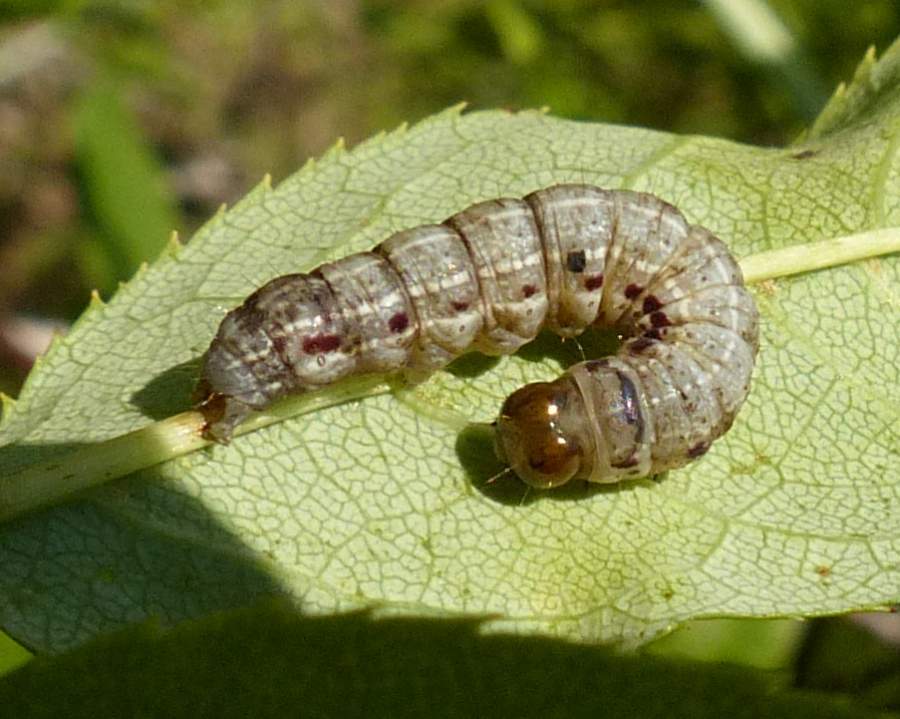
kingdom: Animalia
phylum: Arthropoda
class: Insecta
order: Lepidoptera
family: Noctuidae
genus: Achatia
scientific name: Achatia confusa
